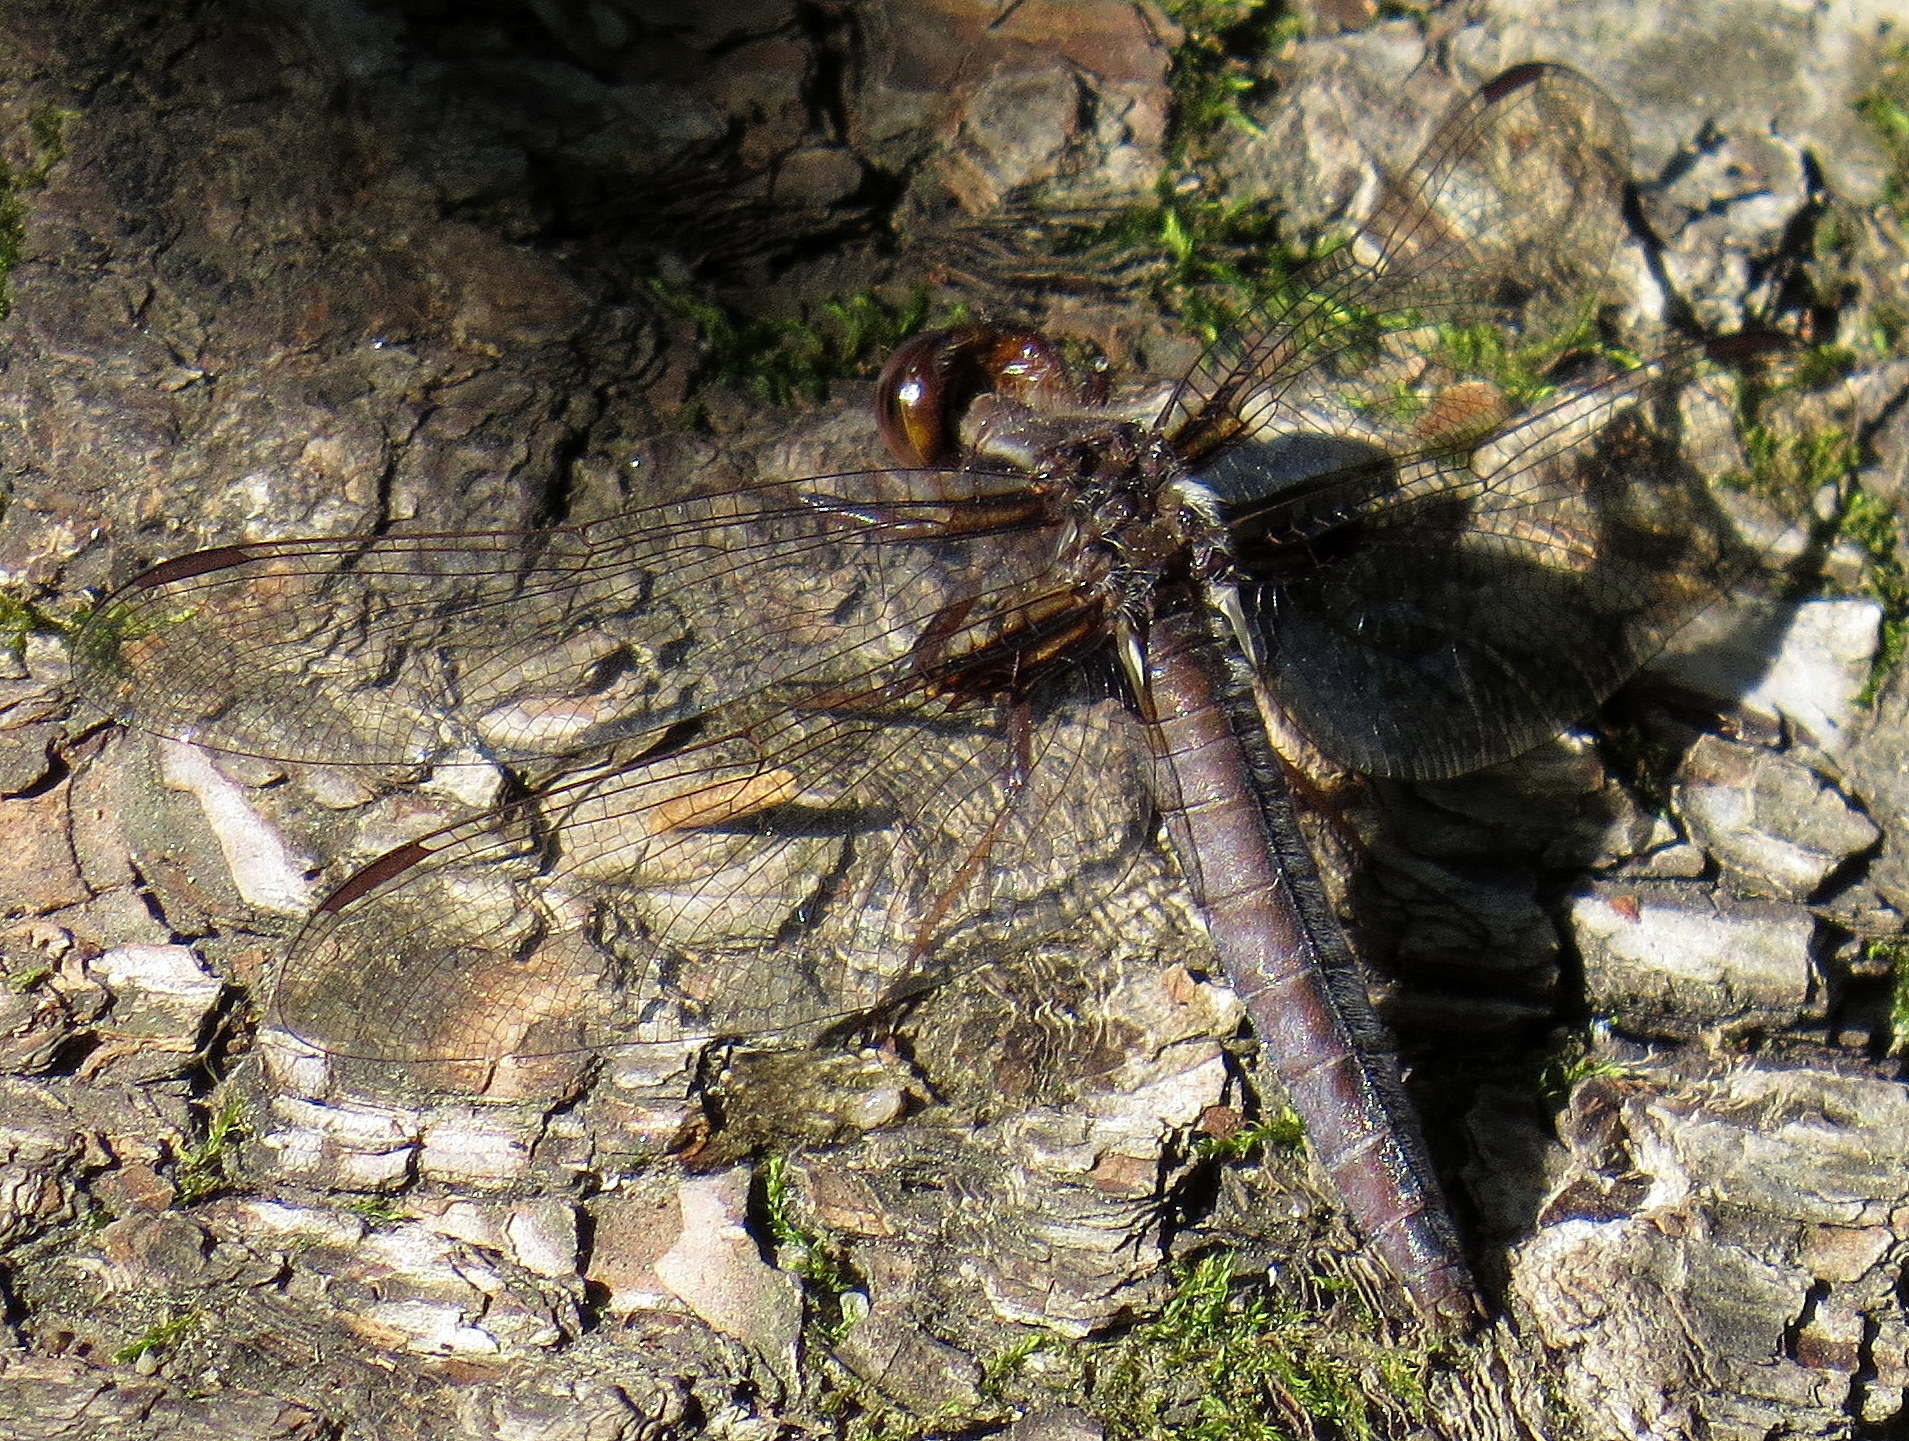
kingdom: Animalia
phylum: Arthropoda
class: Insecta
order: Odonata
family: Libellulidae
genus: Ladona
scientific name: Ladona exusta
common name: Libellule embrasée
